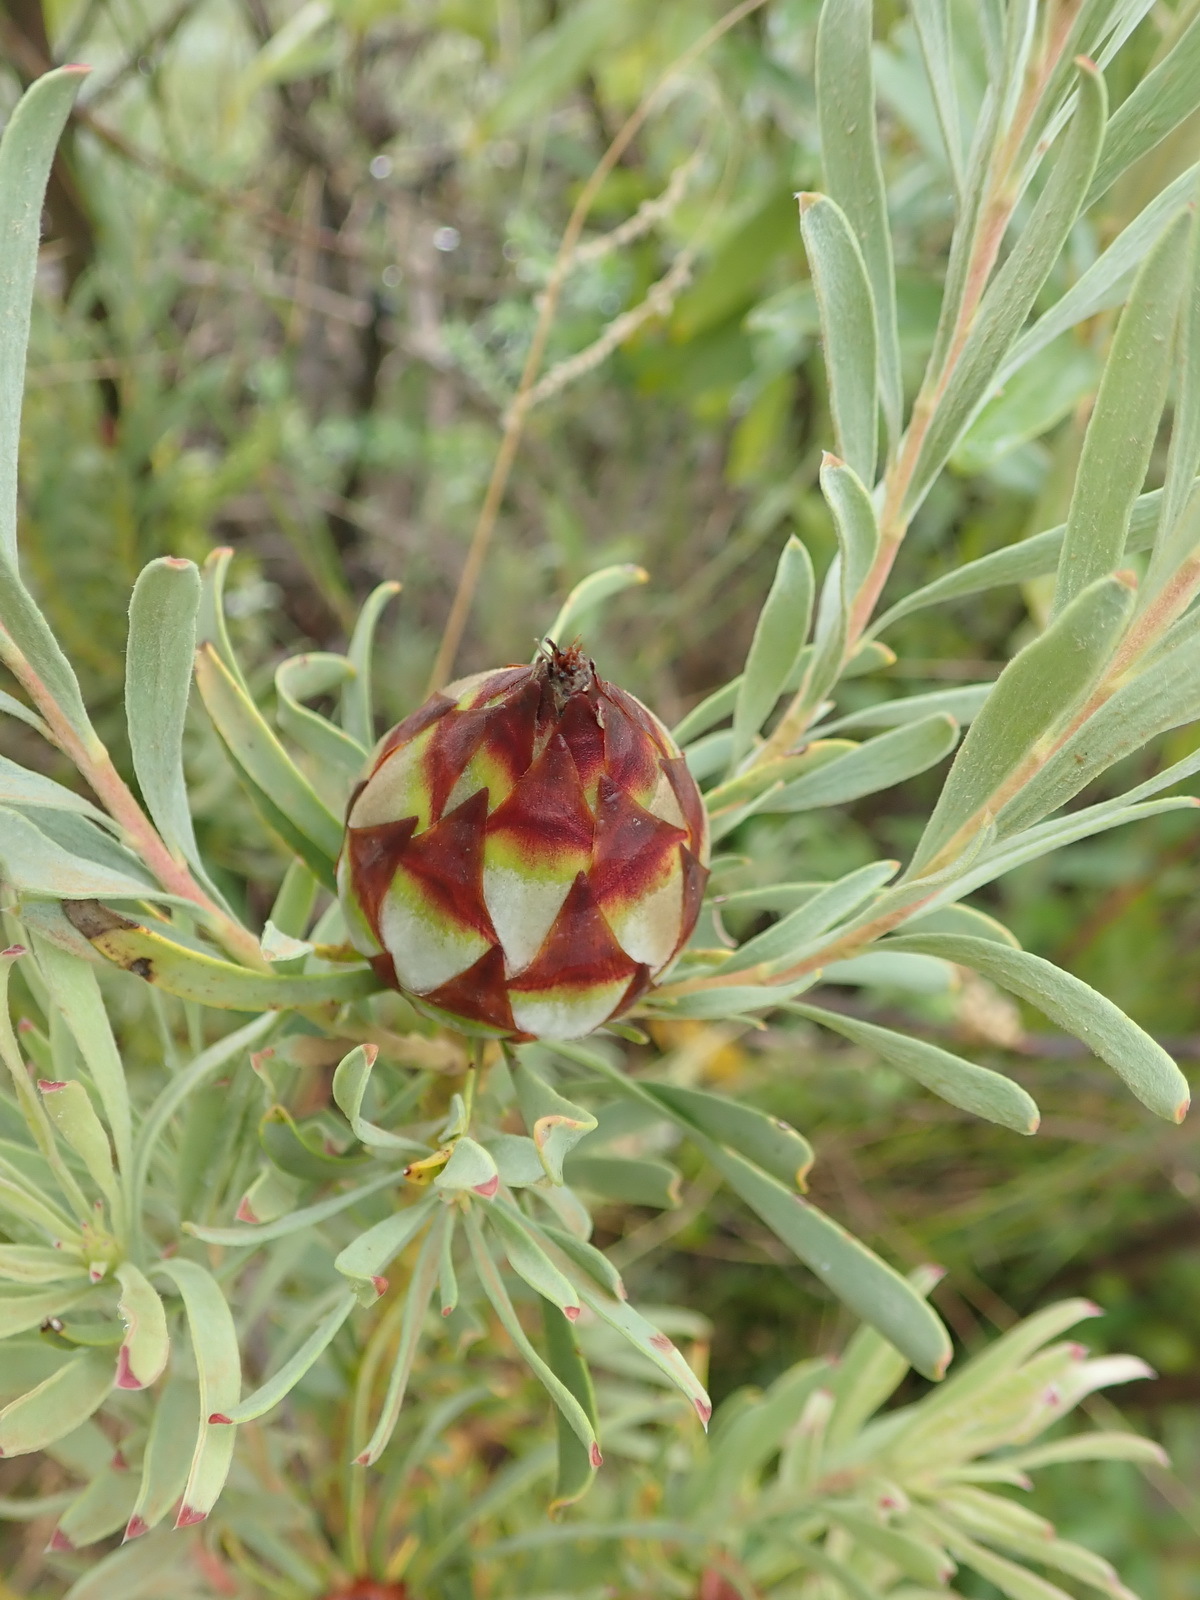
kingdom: Plantae
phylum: Tracheophyta
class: Magnoliopsida
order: Proteales
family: Proteaceae
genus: Leucadendron
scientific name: Leucadendron rubrum
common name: Spinning top
